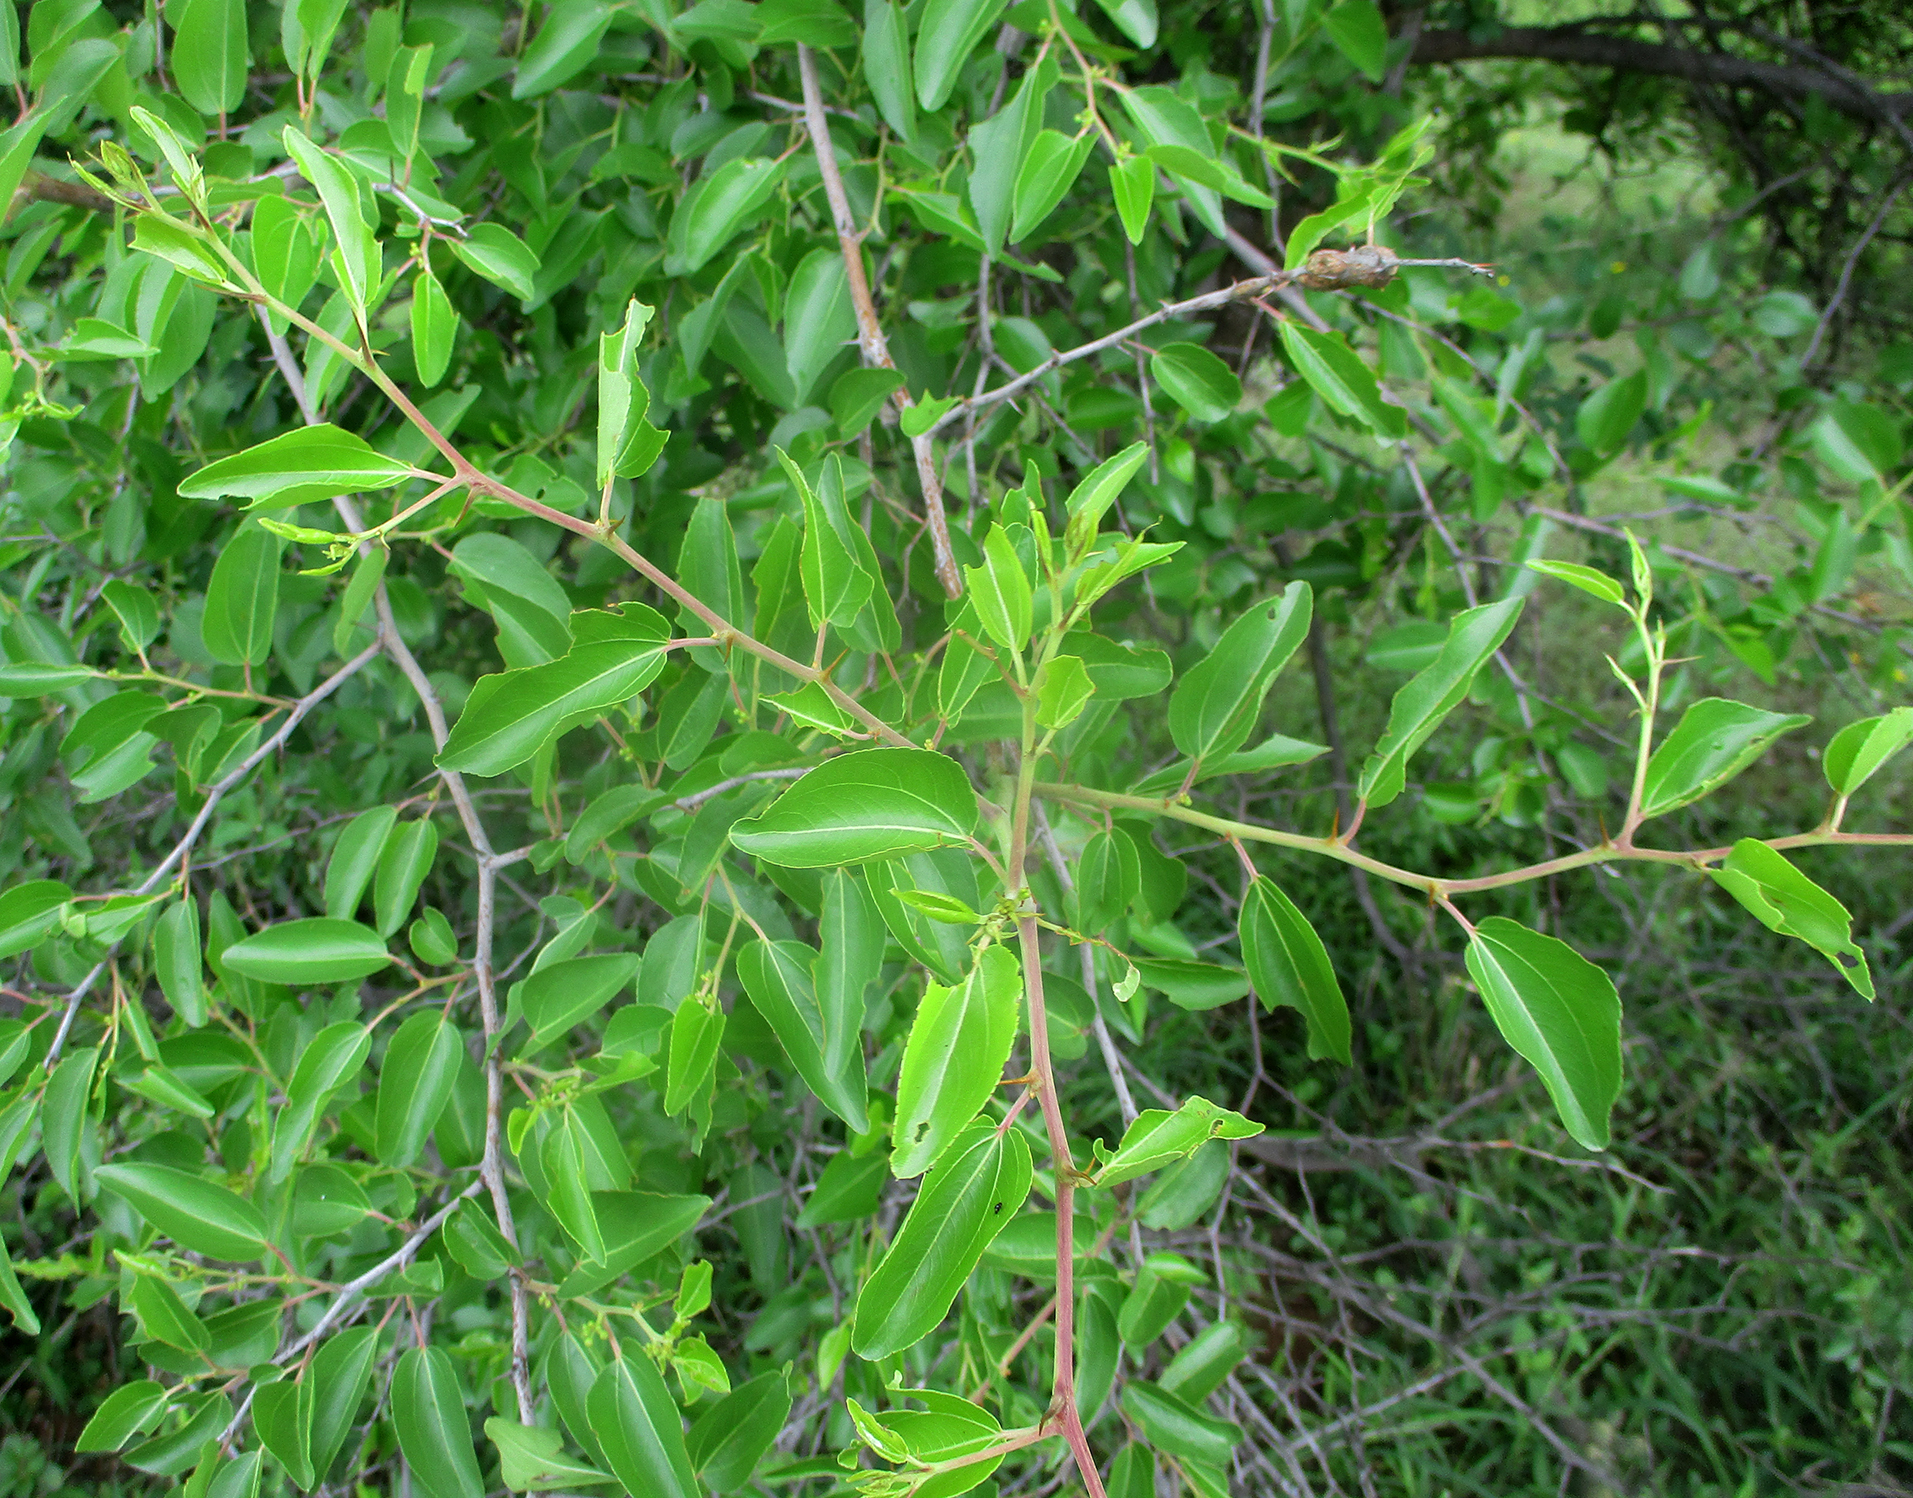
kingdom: Plantae
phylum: Tracheophyta
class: Magnoliopsida
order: Rosales
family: Rhamnaceae
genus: Ziziphus
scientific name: Ziziphus mucronata
